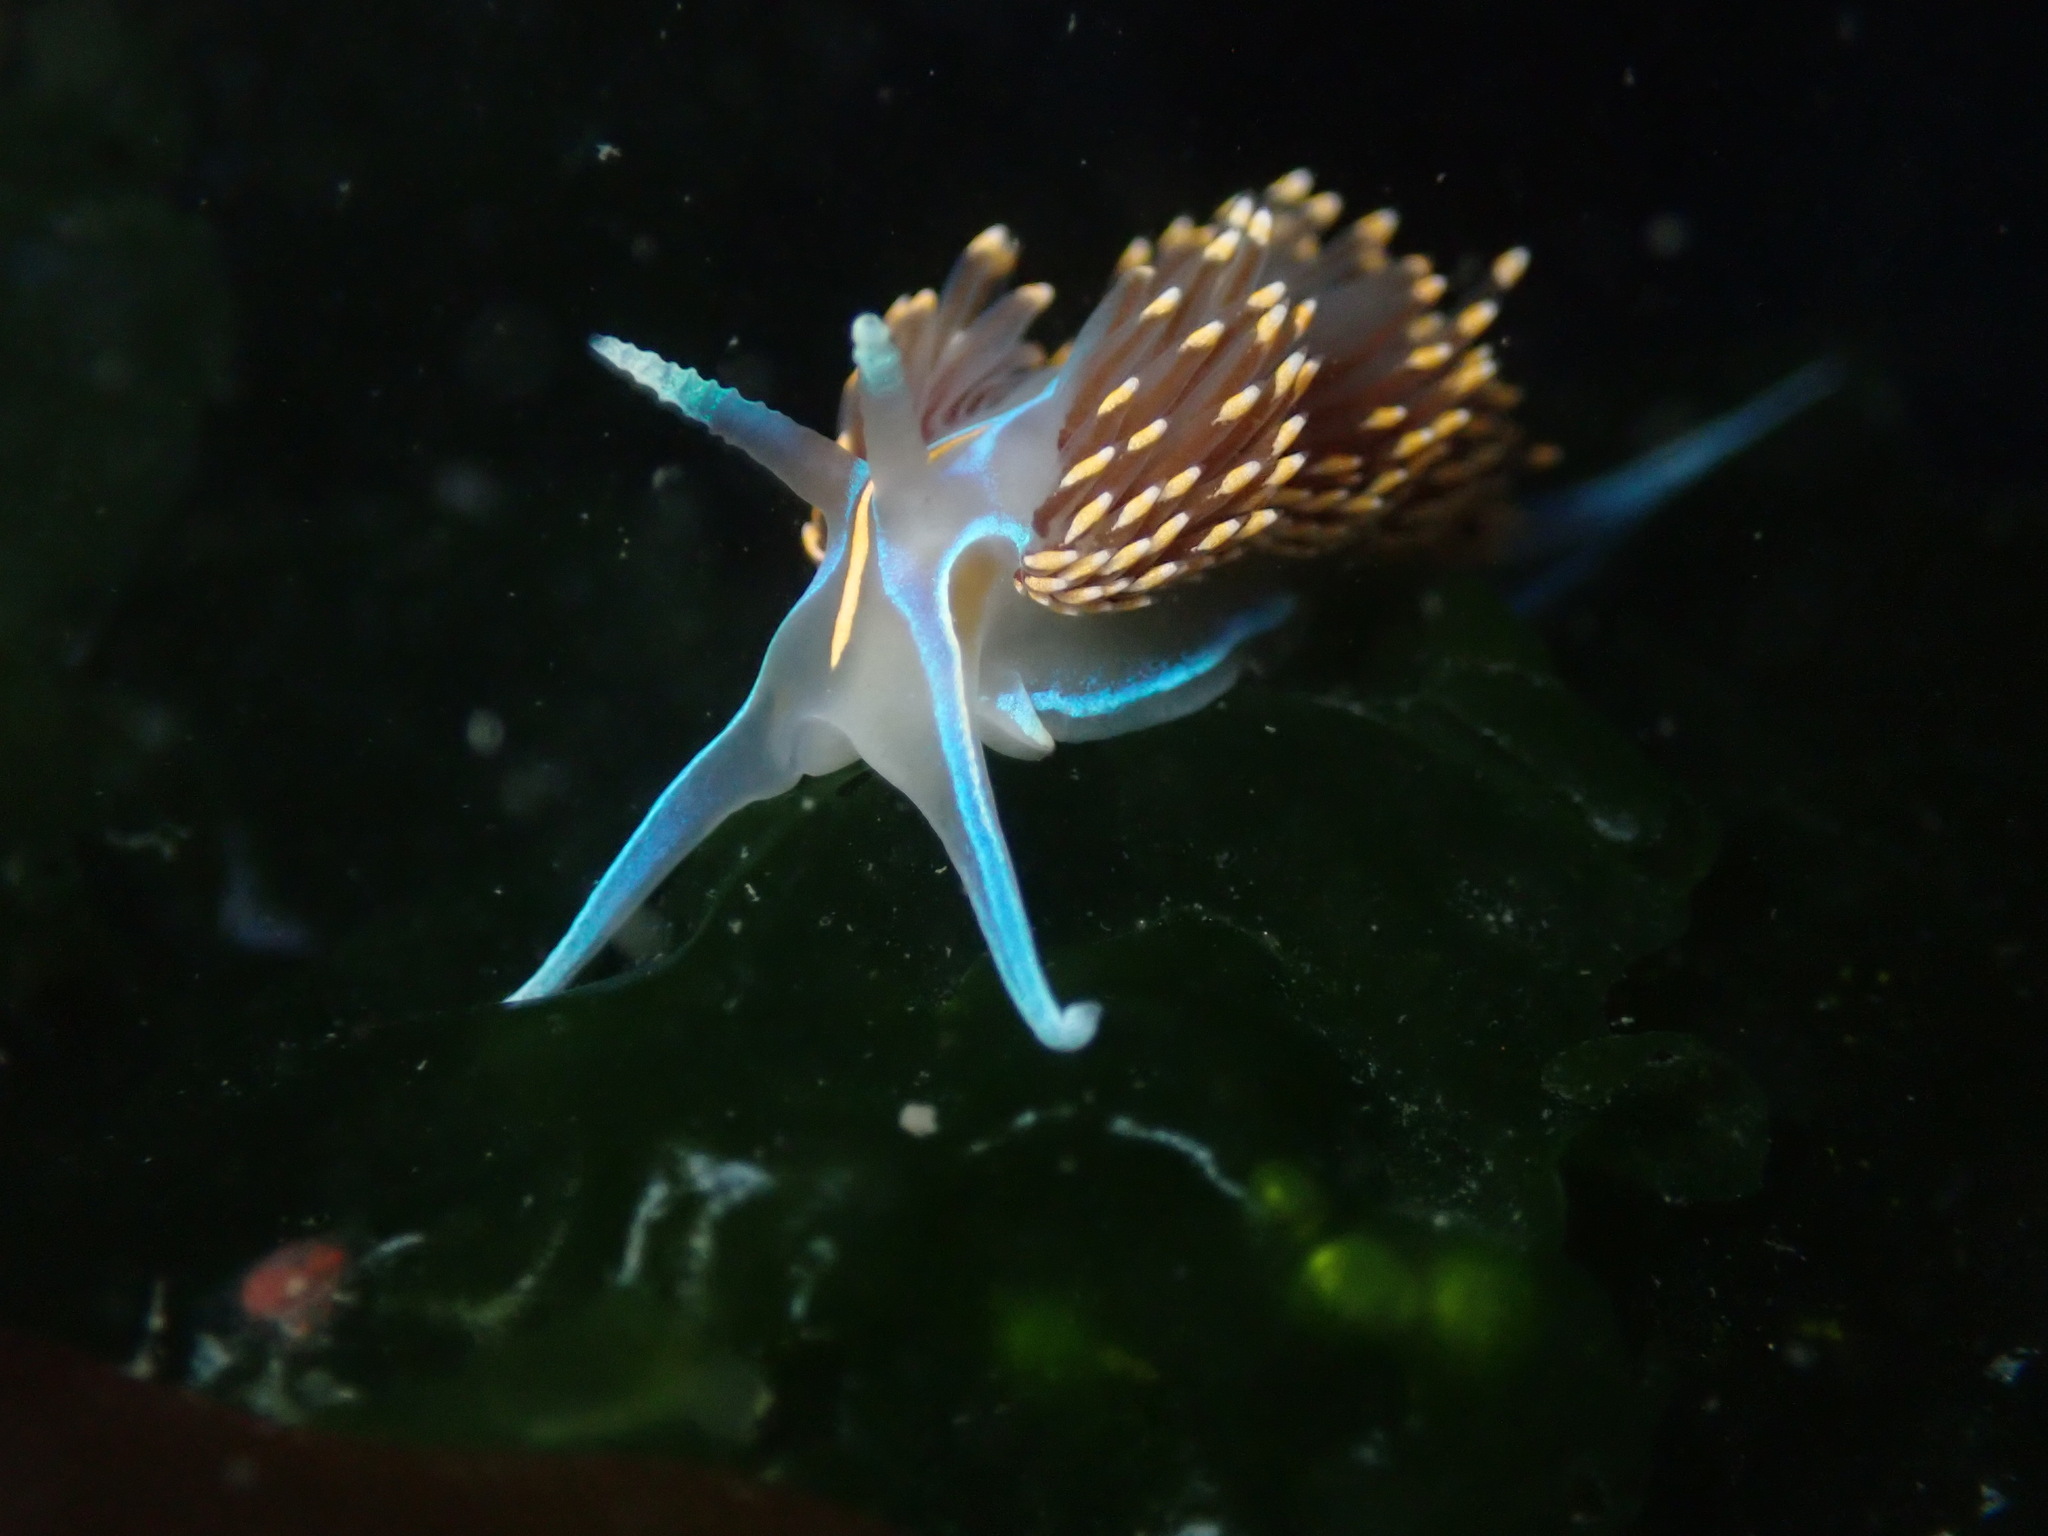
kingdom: Animalia
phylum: Mollusca
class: Gastropoda
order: Nudibranchia
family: Myrrhinidae
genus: Hermissenda
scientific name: Hermissenda opalescens
